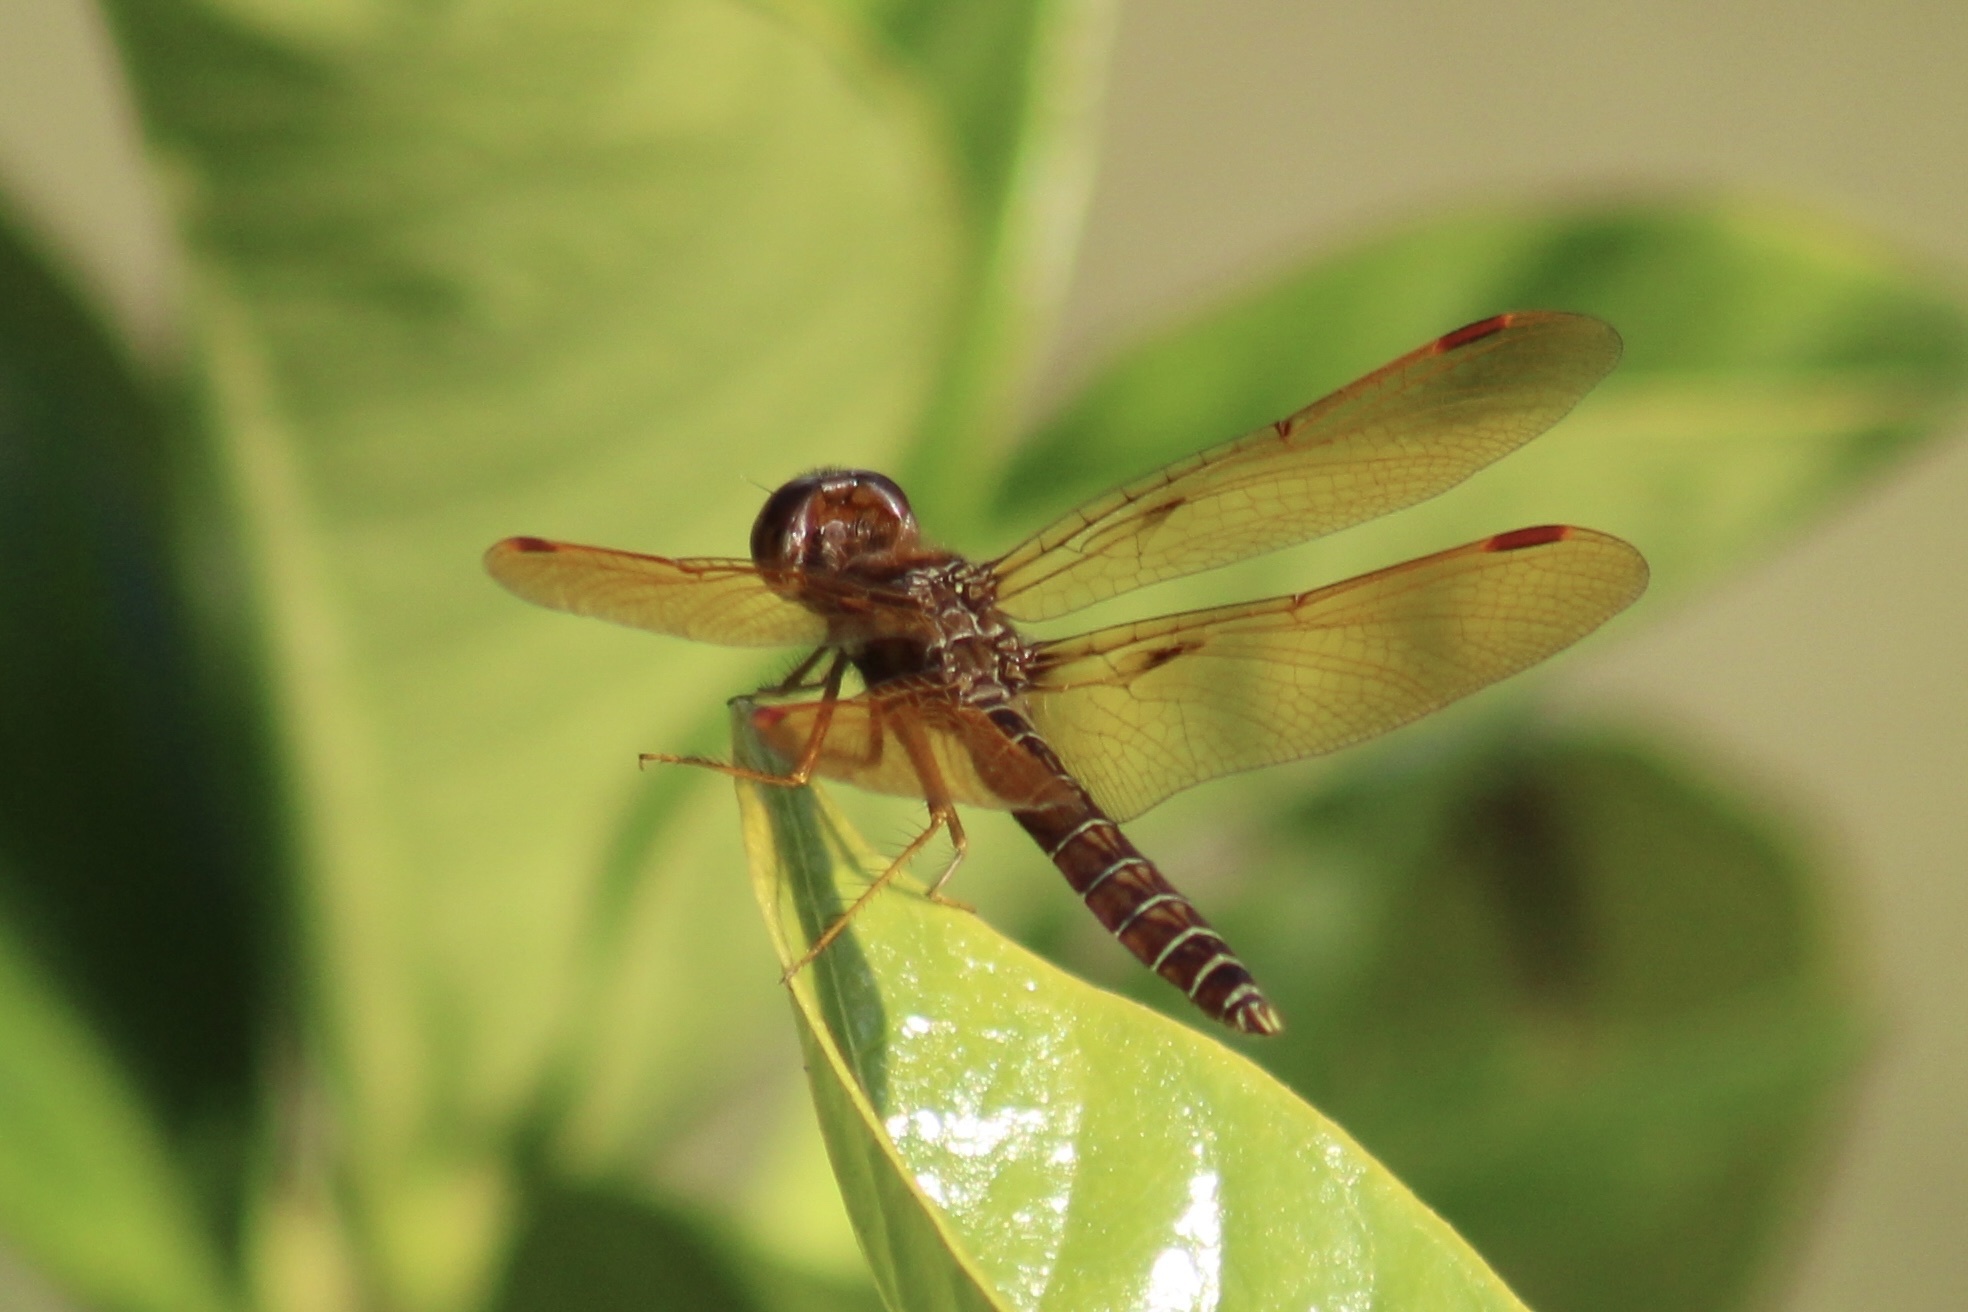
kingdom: Animalia
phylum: Arthropoda
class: Insecta
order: Odonata
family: Libellulidae
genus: Perithemis
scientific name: Perithemis tenera
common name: Eastern amberwing
